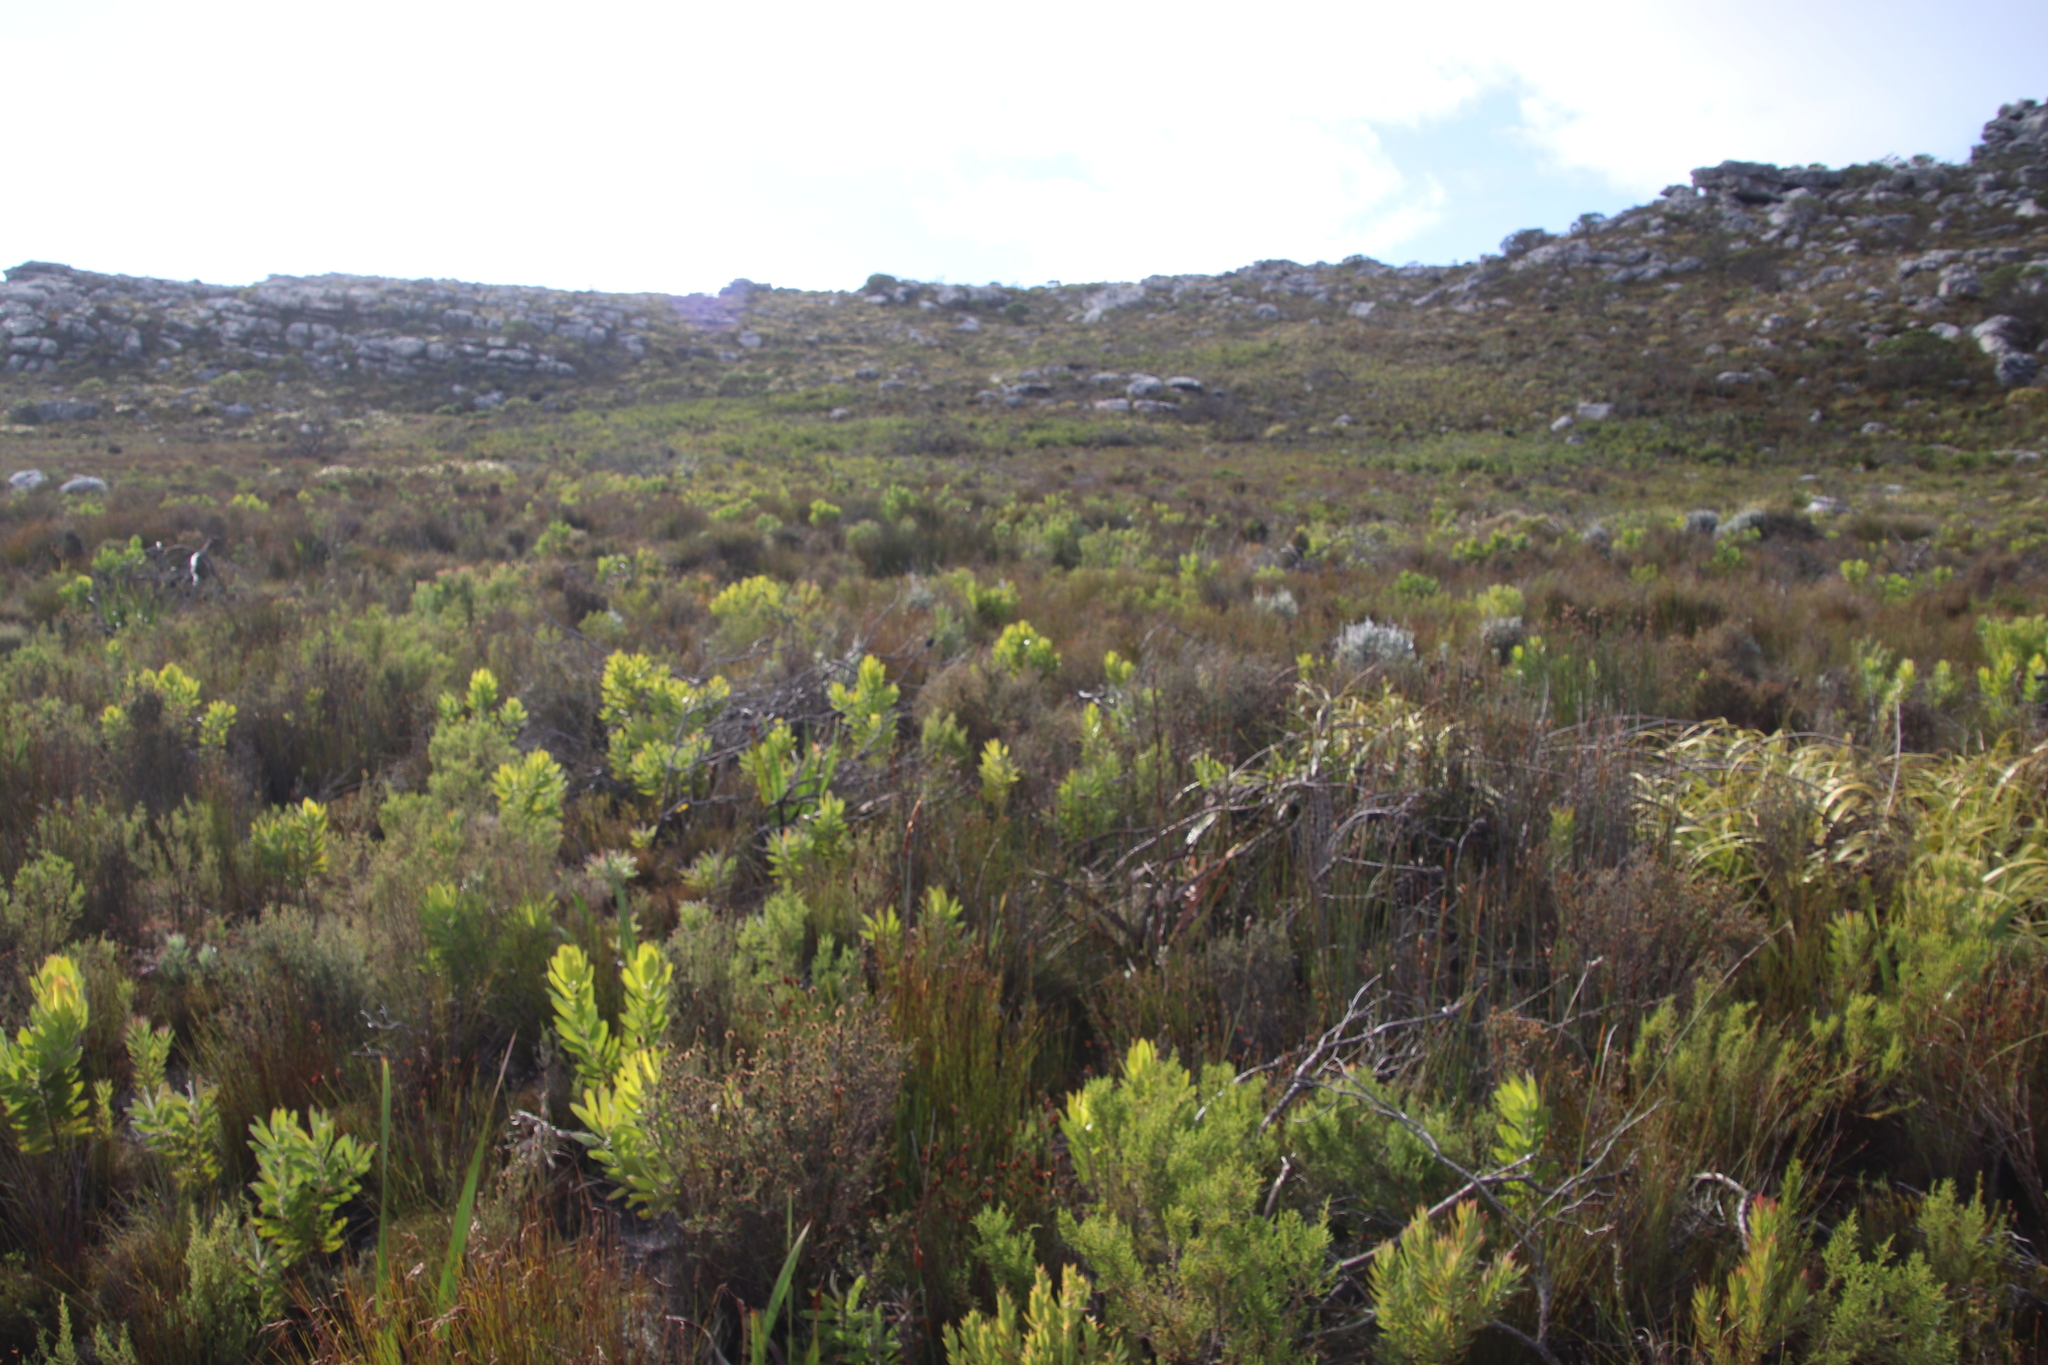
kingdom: Plantae
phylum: Tracheophyta
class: Magnoliopsida
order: Proteales
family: Proteaceae
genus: Leucadendron
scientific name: Leucadendron xanthoconus
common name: Sickle-leaf conebush
